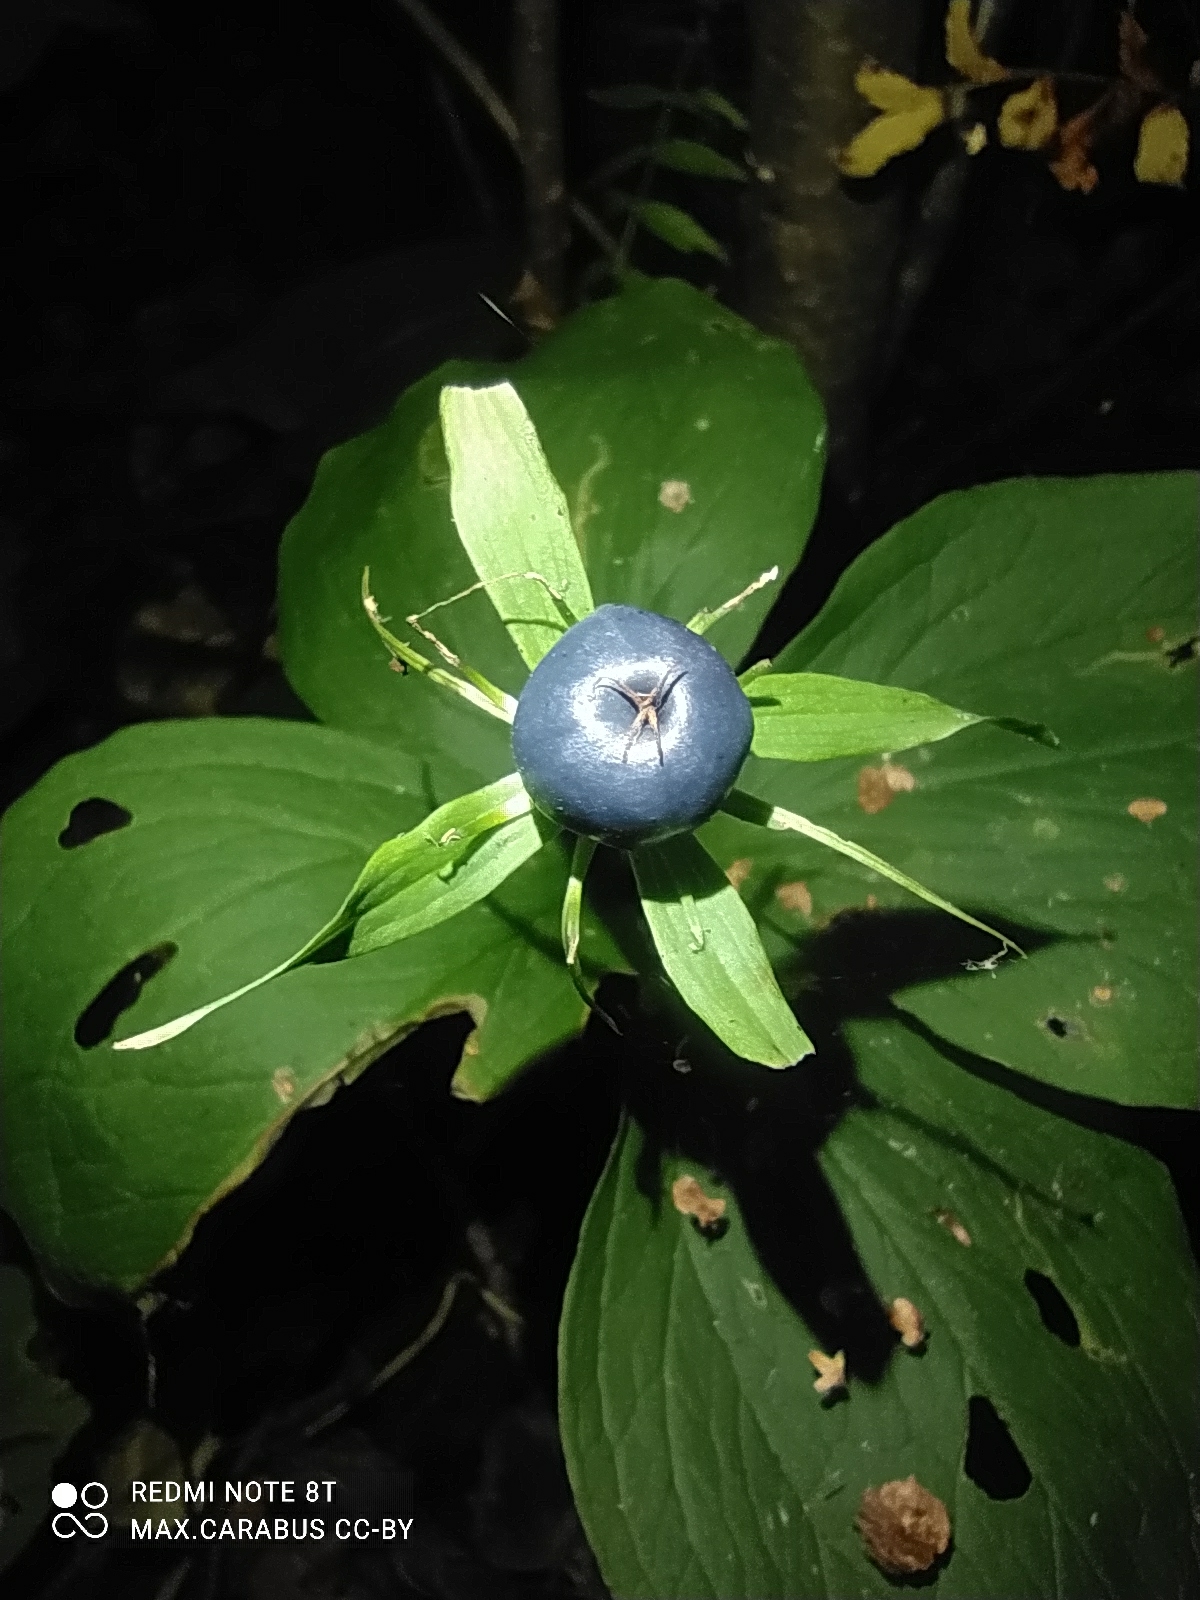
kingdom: Plantae
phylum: Tracheophyta
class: Liliopsida
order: Liliales
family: Melanthiaceae
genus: Paris
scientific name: Paris quadrifolia
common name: Herb-paris
